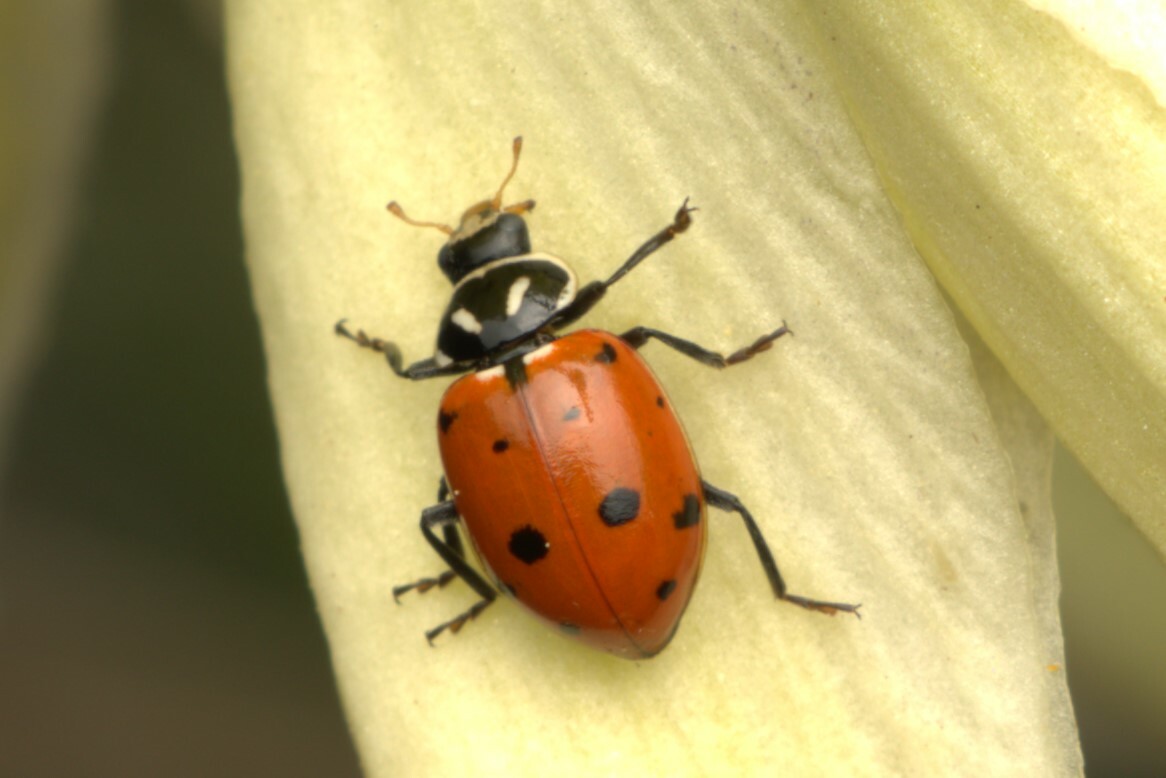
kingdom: Animalia
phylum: Arthropoda
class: Insecta
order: Coleoptera
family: Coccinellidae
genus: Hippodamia
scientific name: Hippodamia convergens
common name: Convergent lady beetle
